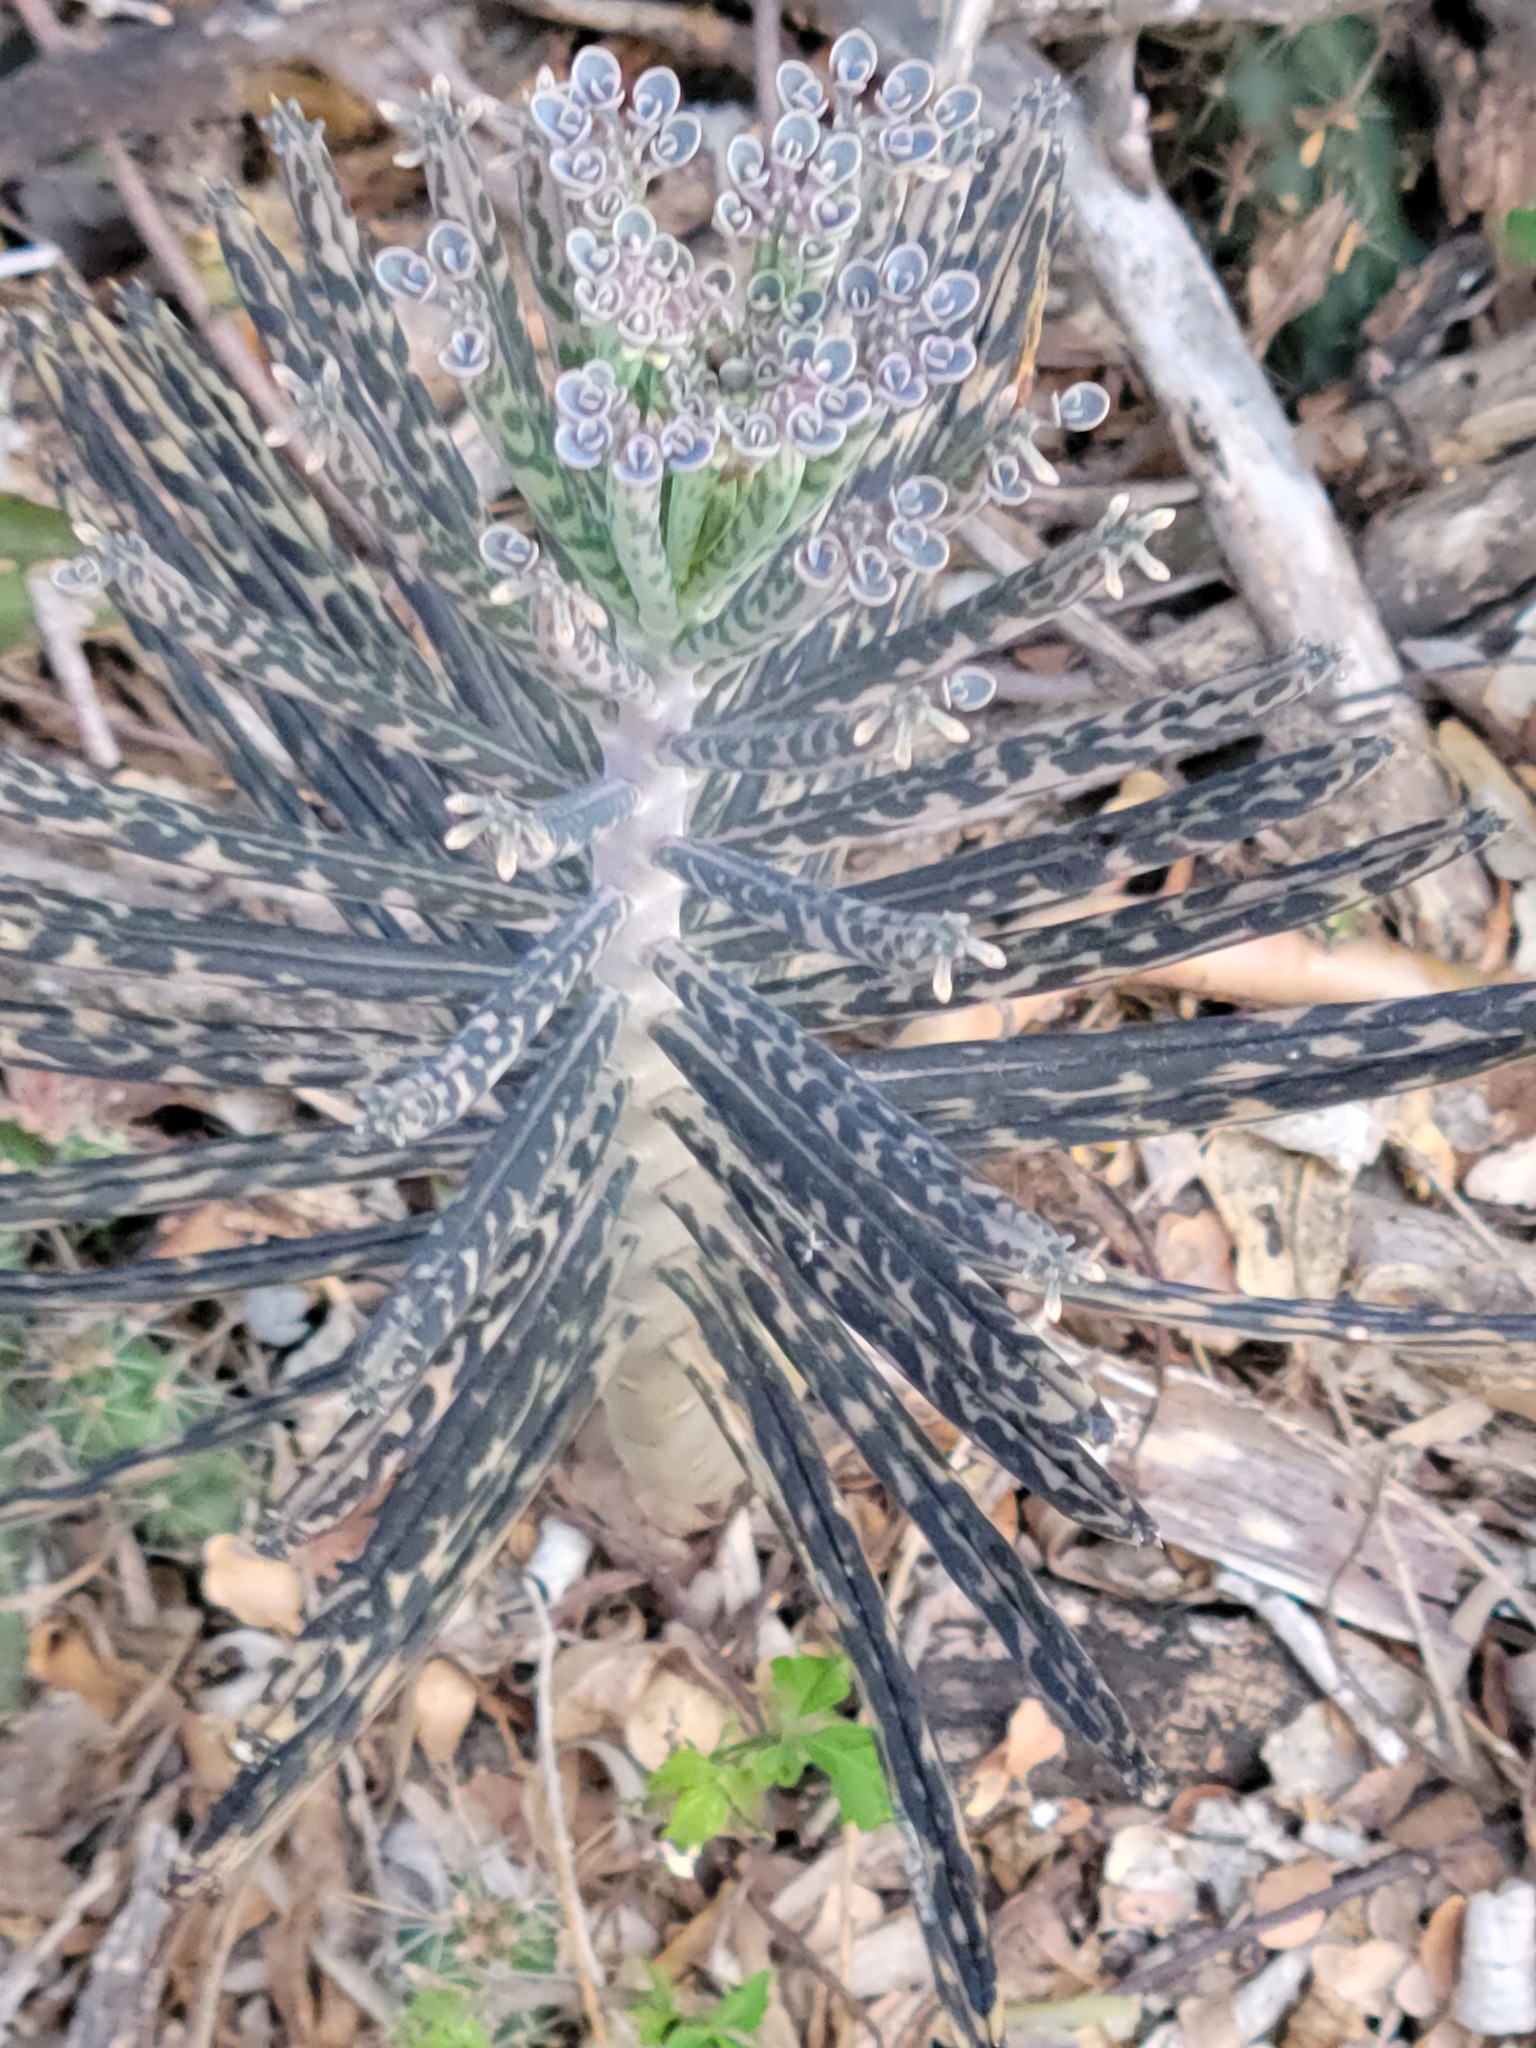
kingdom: Plantae
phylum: Tracheophyta
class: Magnoliopsida
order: Saxifragales
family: Crassulaceae
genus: Kalanchoe
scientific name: Kalanchoe delagoensis
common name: Chandelier plant
